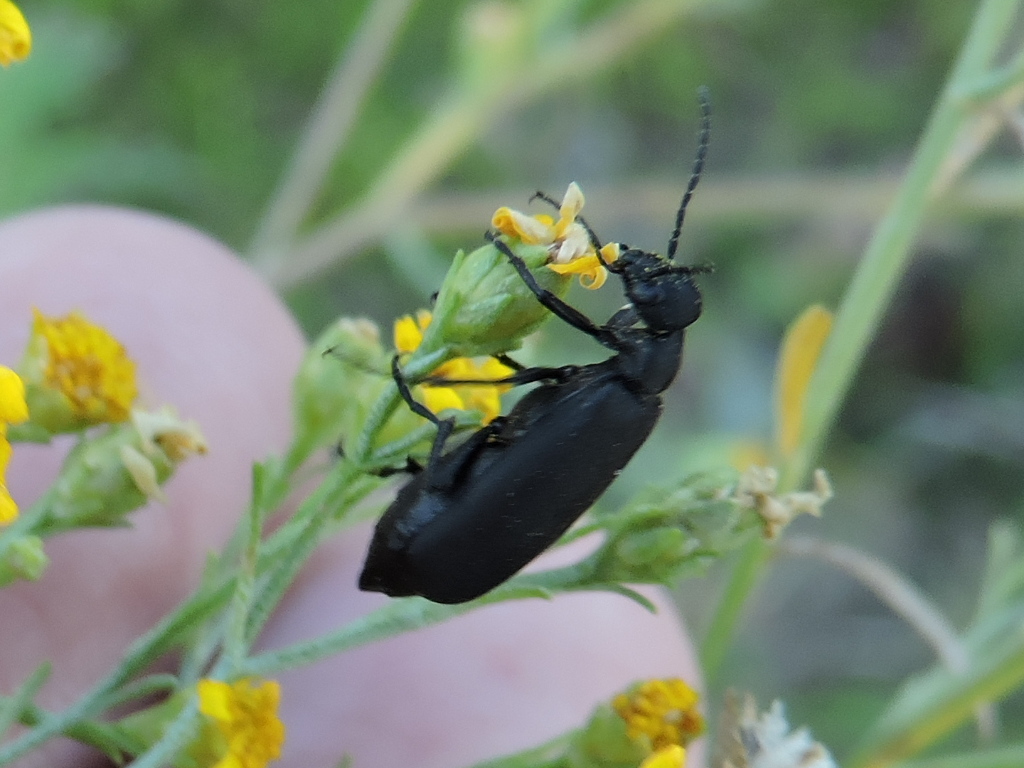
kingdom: Animalia
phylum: Arthropoda
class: Insecta
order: Coleoptera
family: Meloidae
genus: Epicauta
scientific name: Epicauta pensylvanica
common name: Black blister beetle
